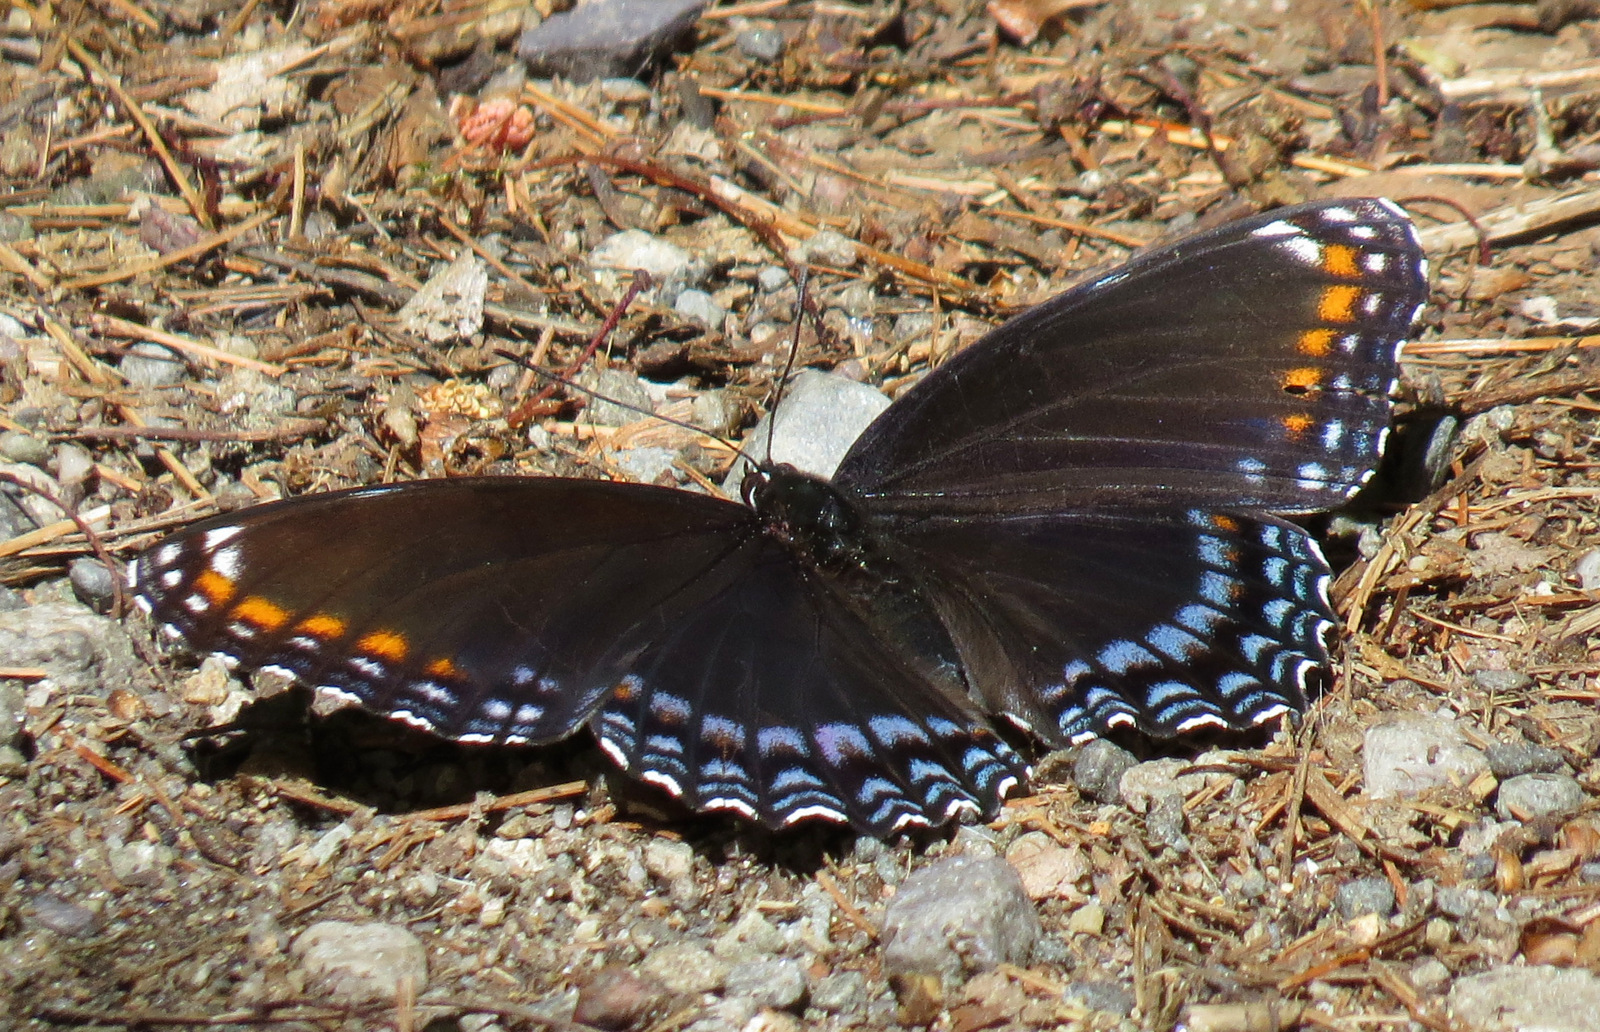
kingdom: Animalia
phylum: Arthropoda
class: Insecta
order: Lepidoptera
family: Nymphalidae
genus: Limenitis
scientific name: Limenitis astyanax
